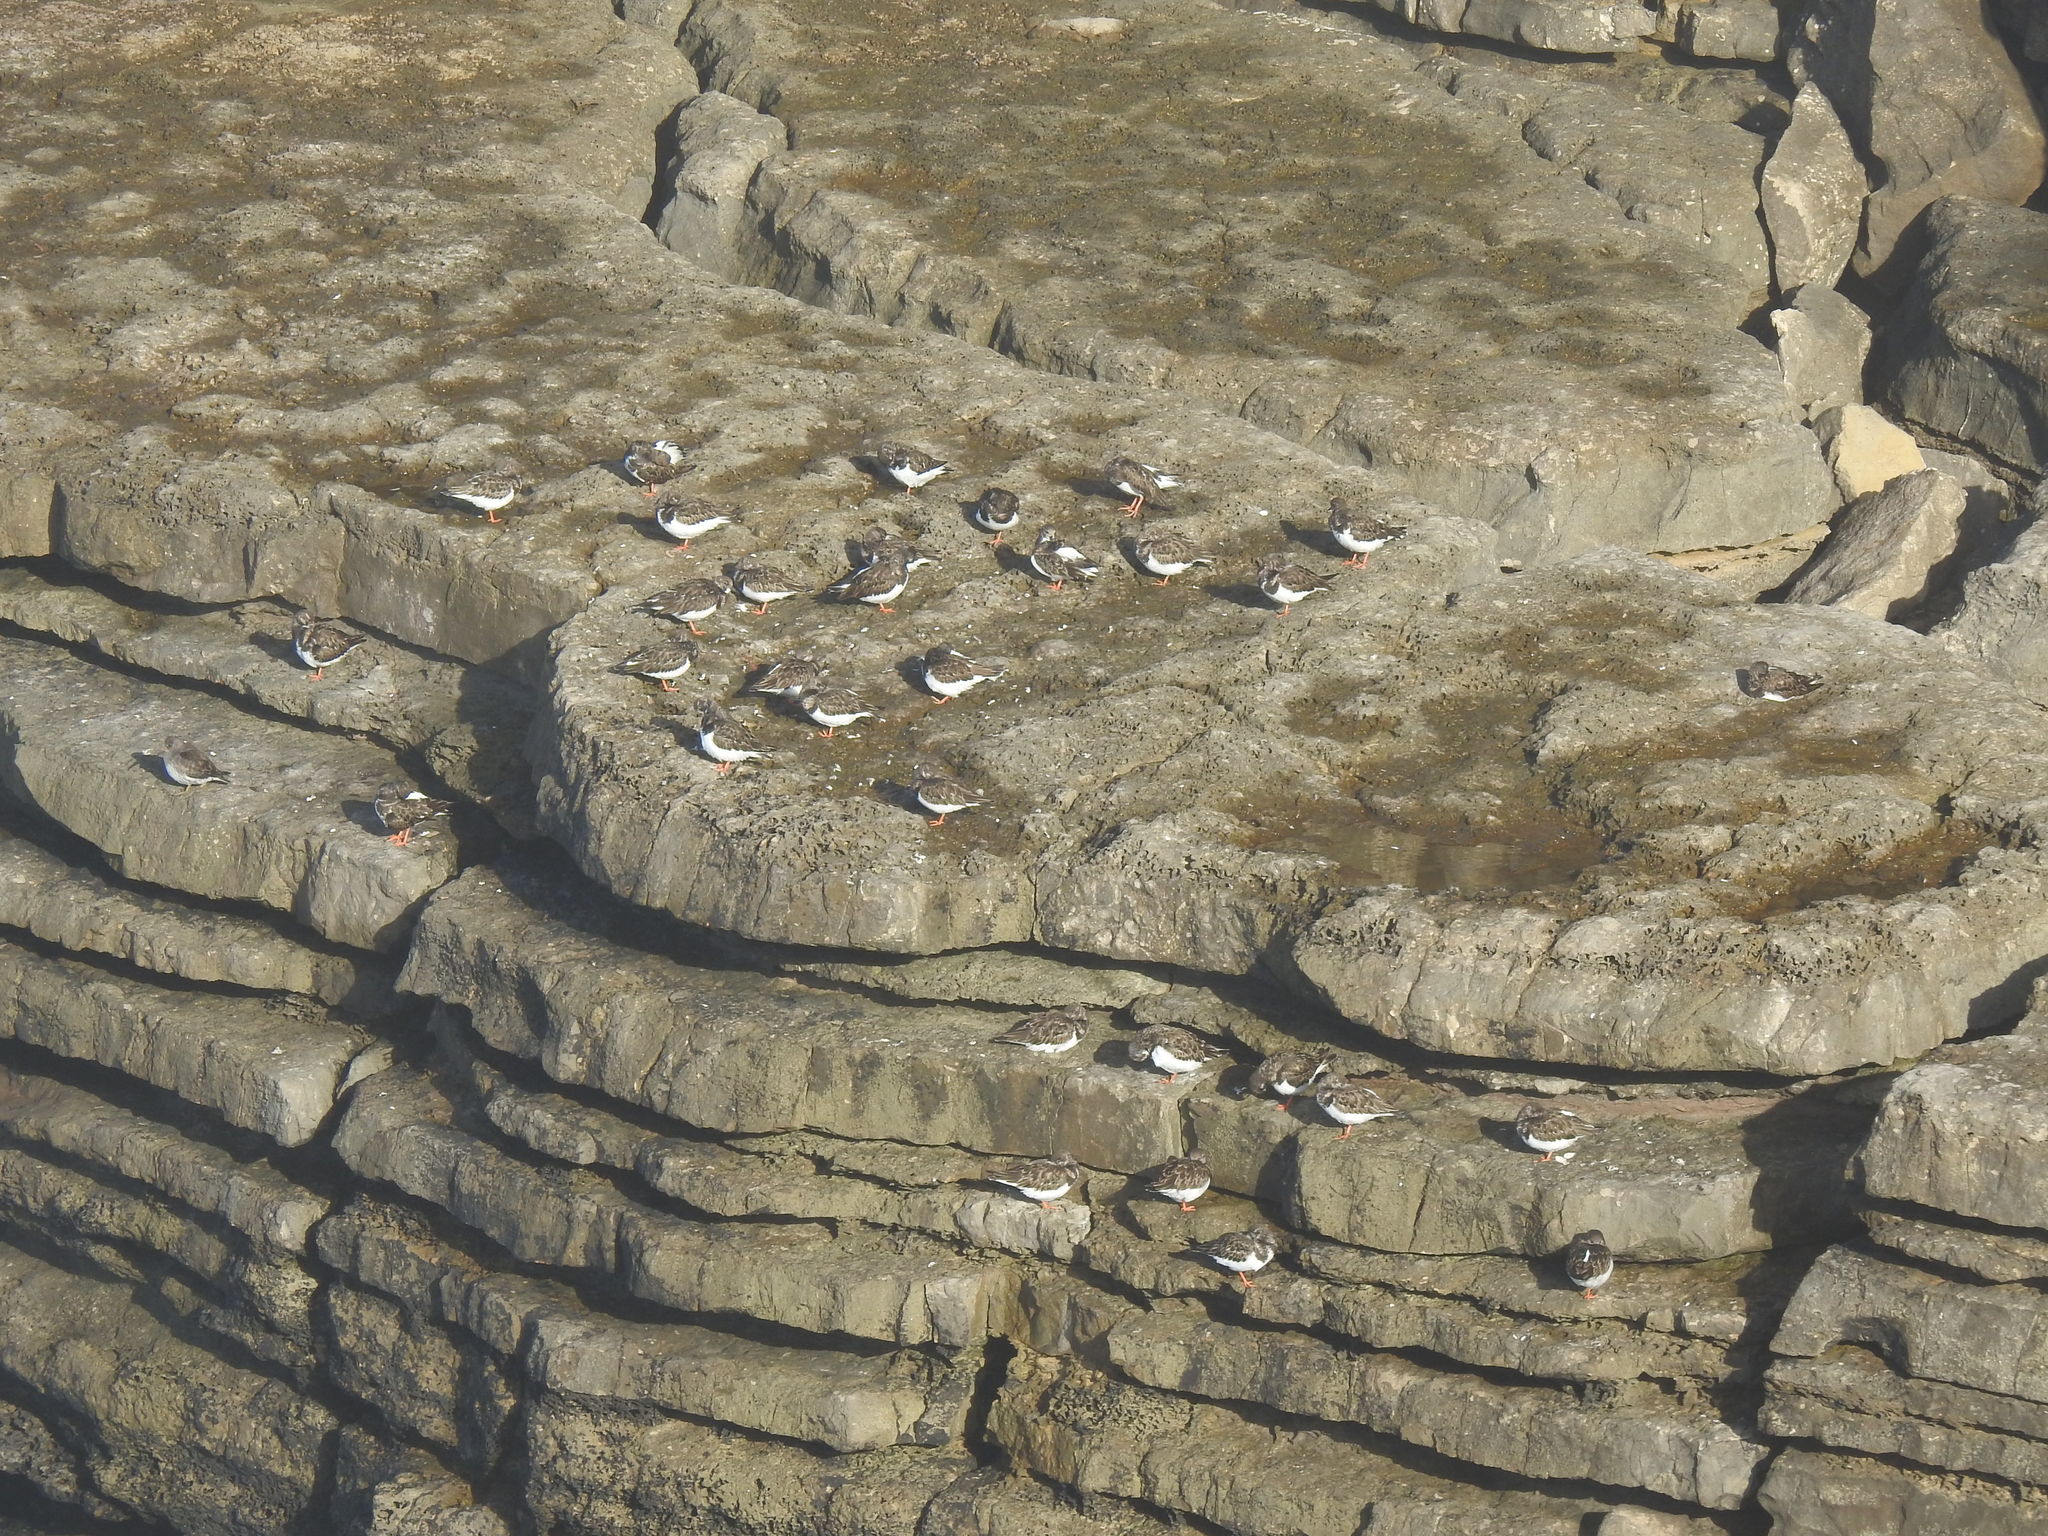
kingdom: Animalia
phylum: Chordata
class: Aves
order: Charadriiformes
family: Scolopacidae
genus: Arenaria
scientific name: Arenaria interpres
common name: Ruddy turnstone
